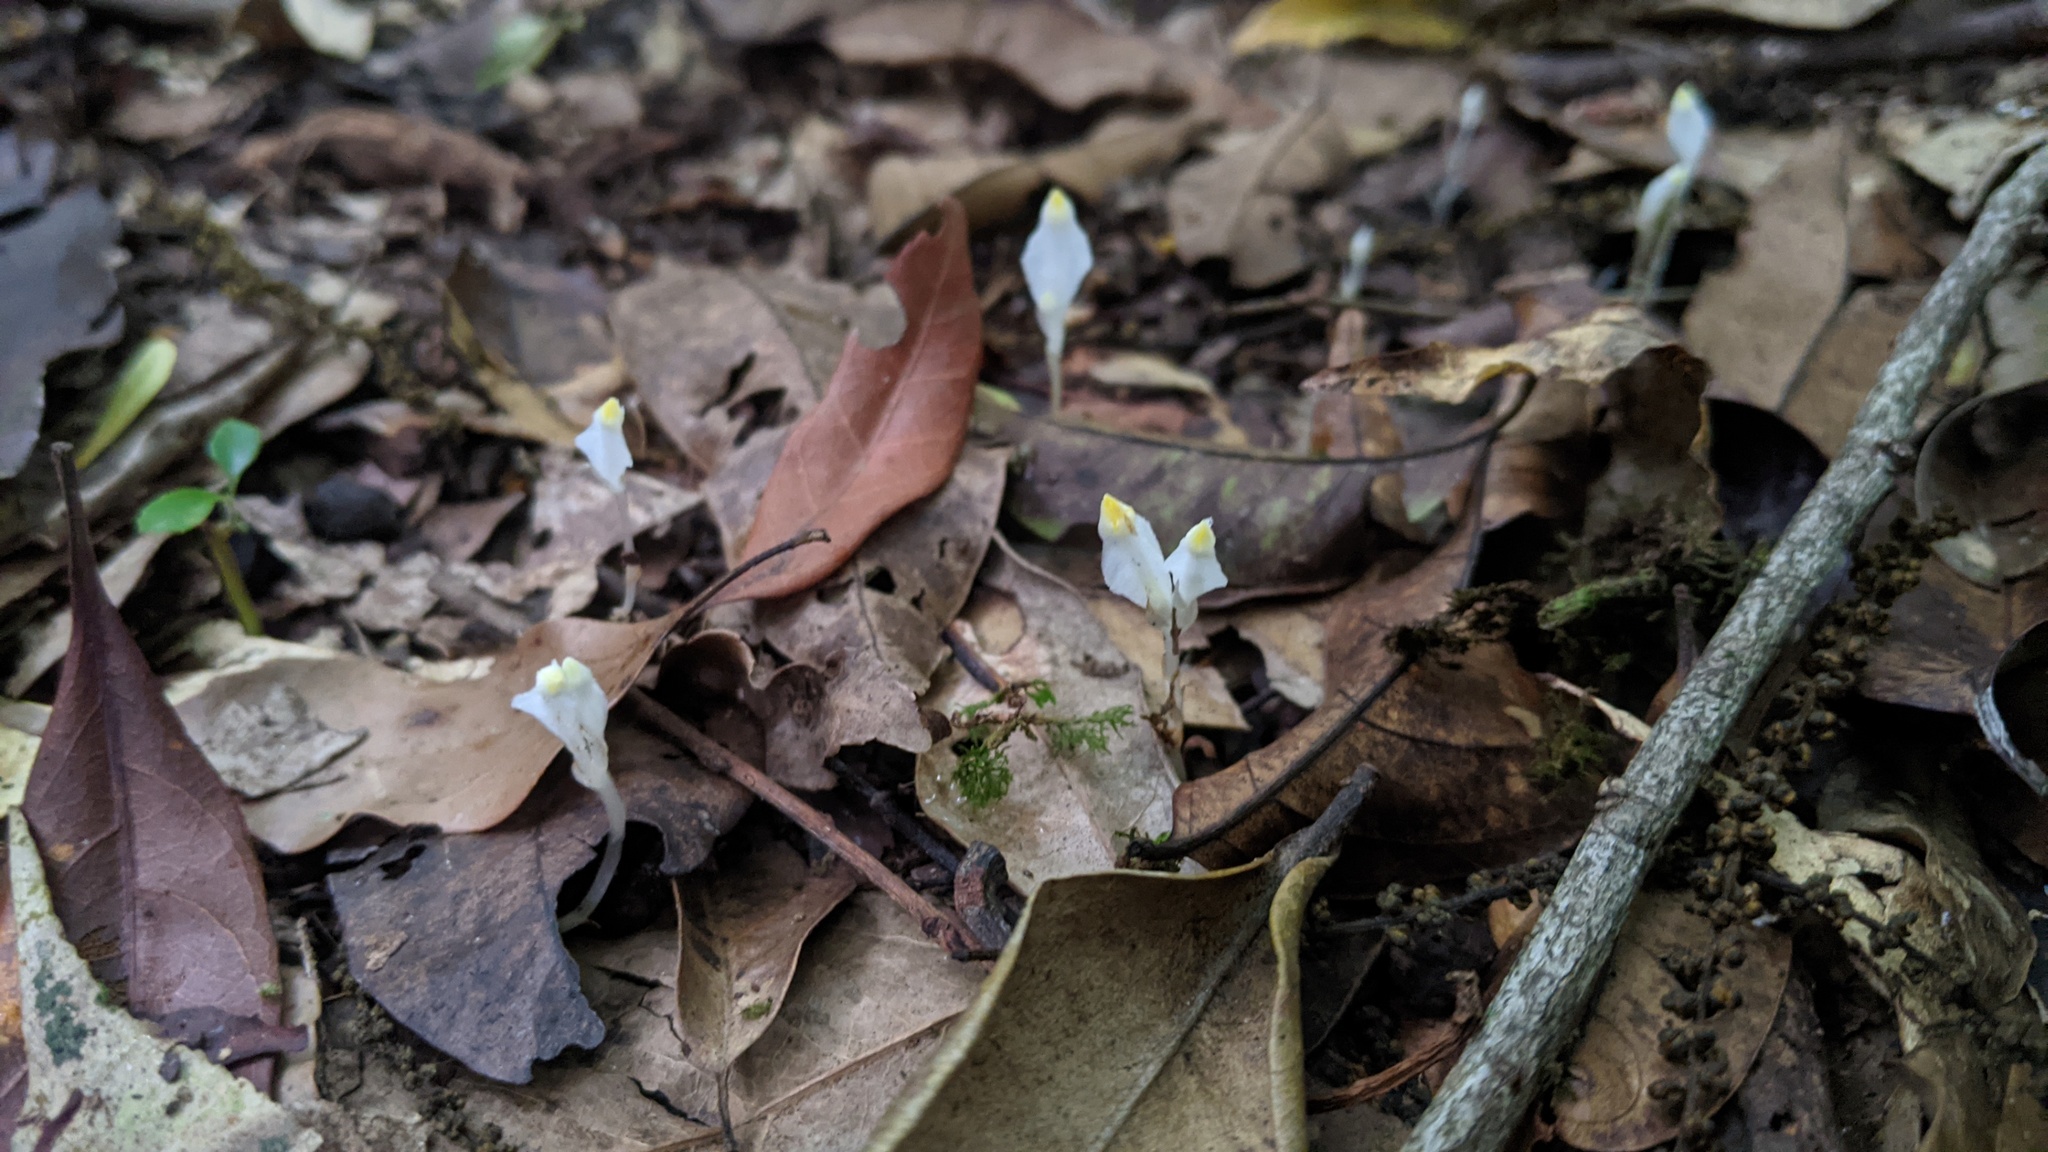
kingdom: Plantae
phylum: Tracheophyta
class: Liliopsida
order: Dioscoreales
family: Burmanniaceae
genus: Burmannia
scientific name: Burmannia cryptopetala
